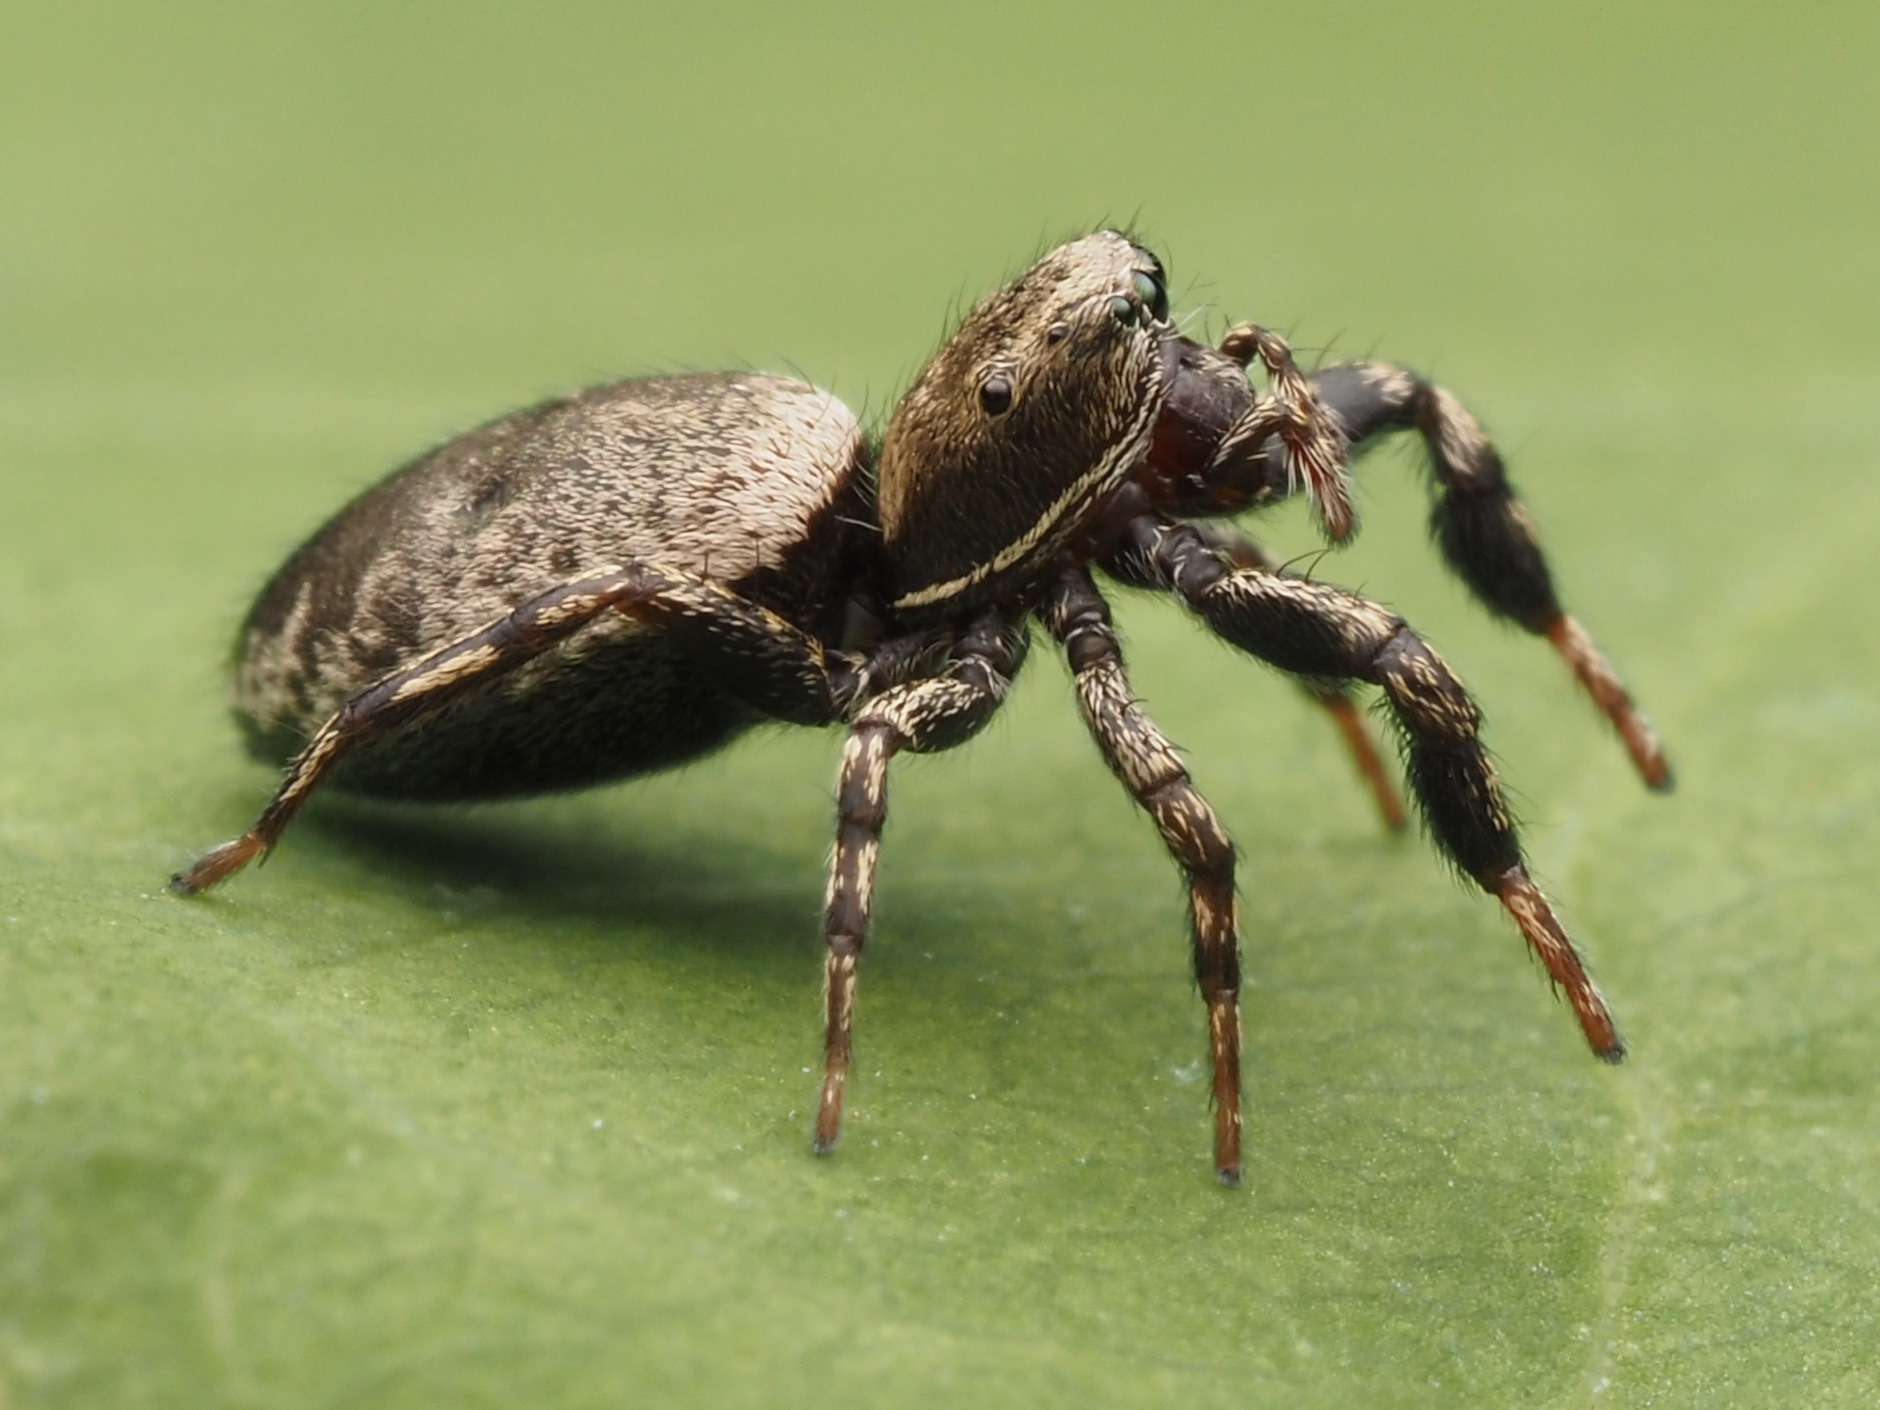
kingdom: Animalia
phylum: Arthropoda
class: Arachnida
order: Araneae
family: Salticidae
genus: Tutelina
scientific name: Tutelina harti
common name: Hart's jumping spider
